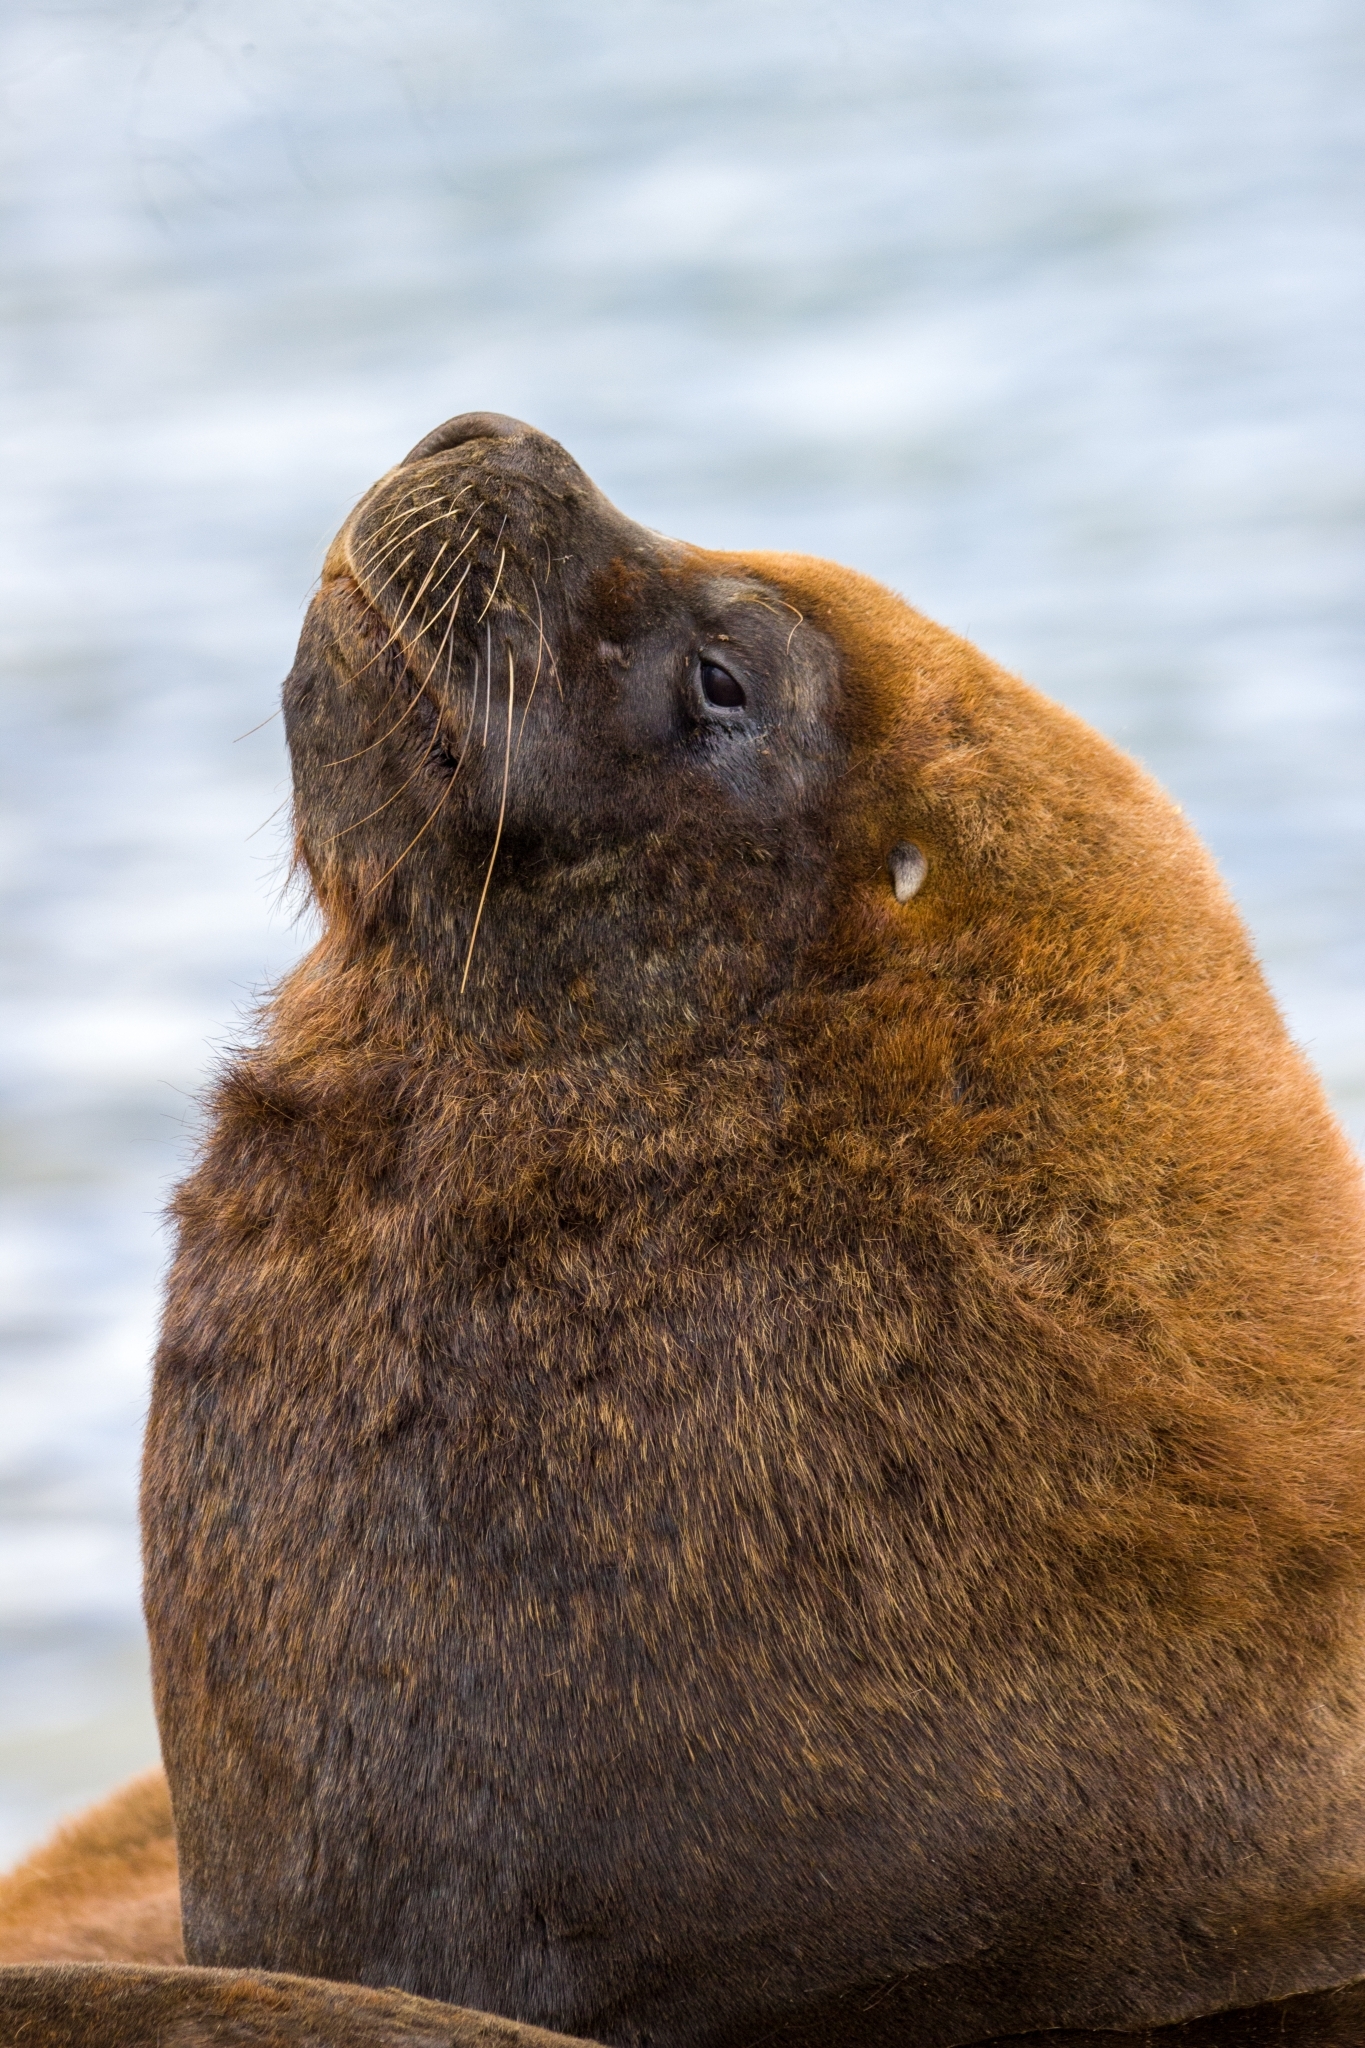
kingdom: Animalia
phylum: Chordata
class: Mammalia
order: Carnivora
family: Otariidae
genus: Otaria
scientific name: Otaria byronia
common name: South american sea lion
